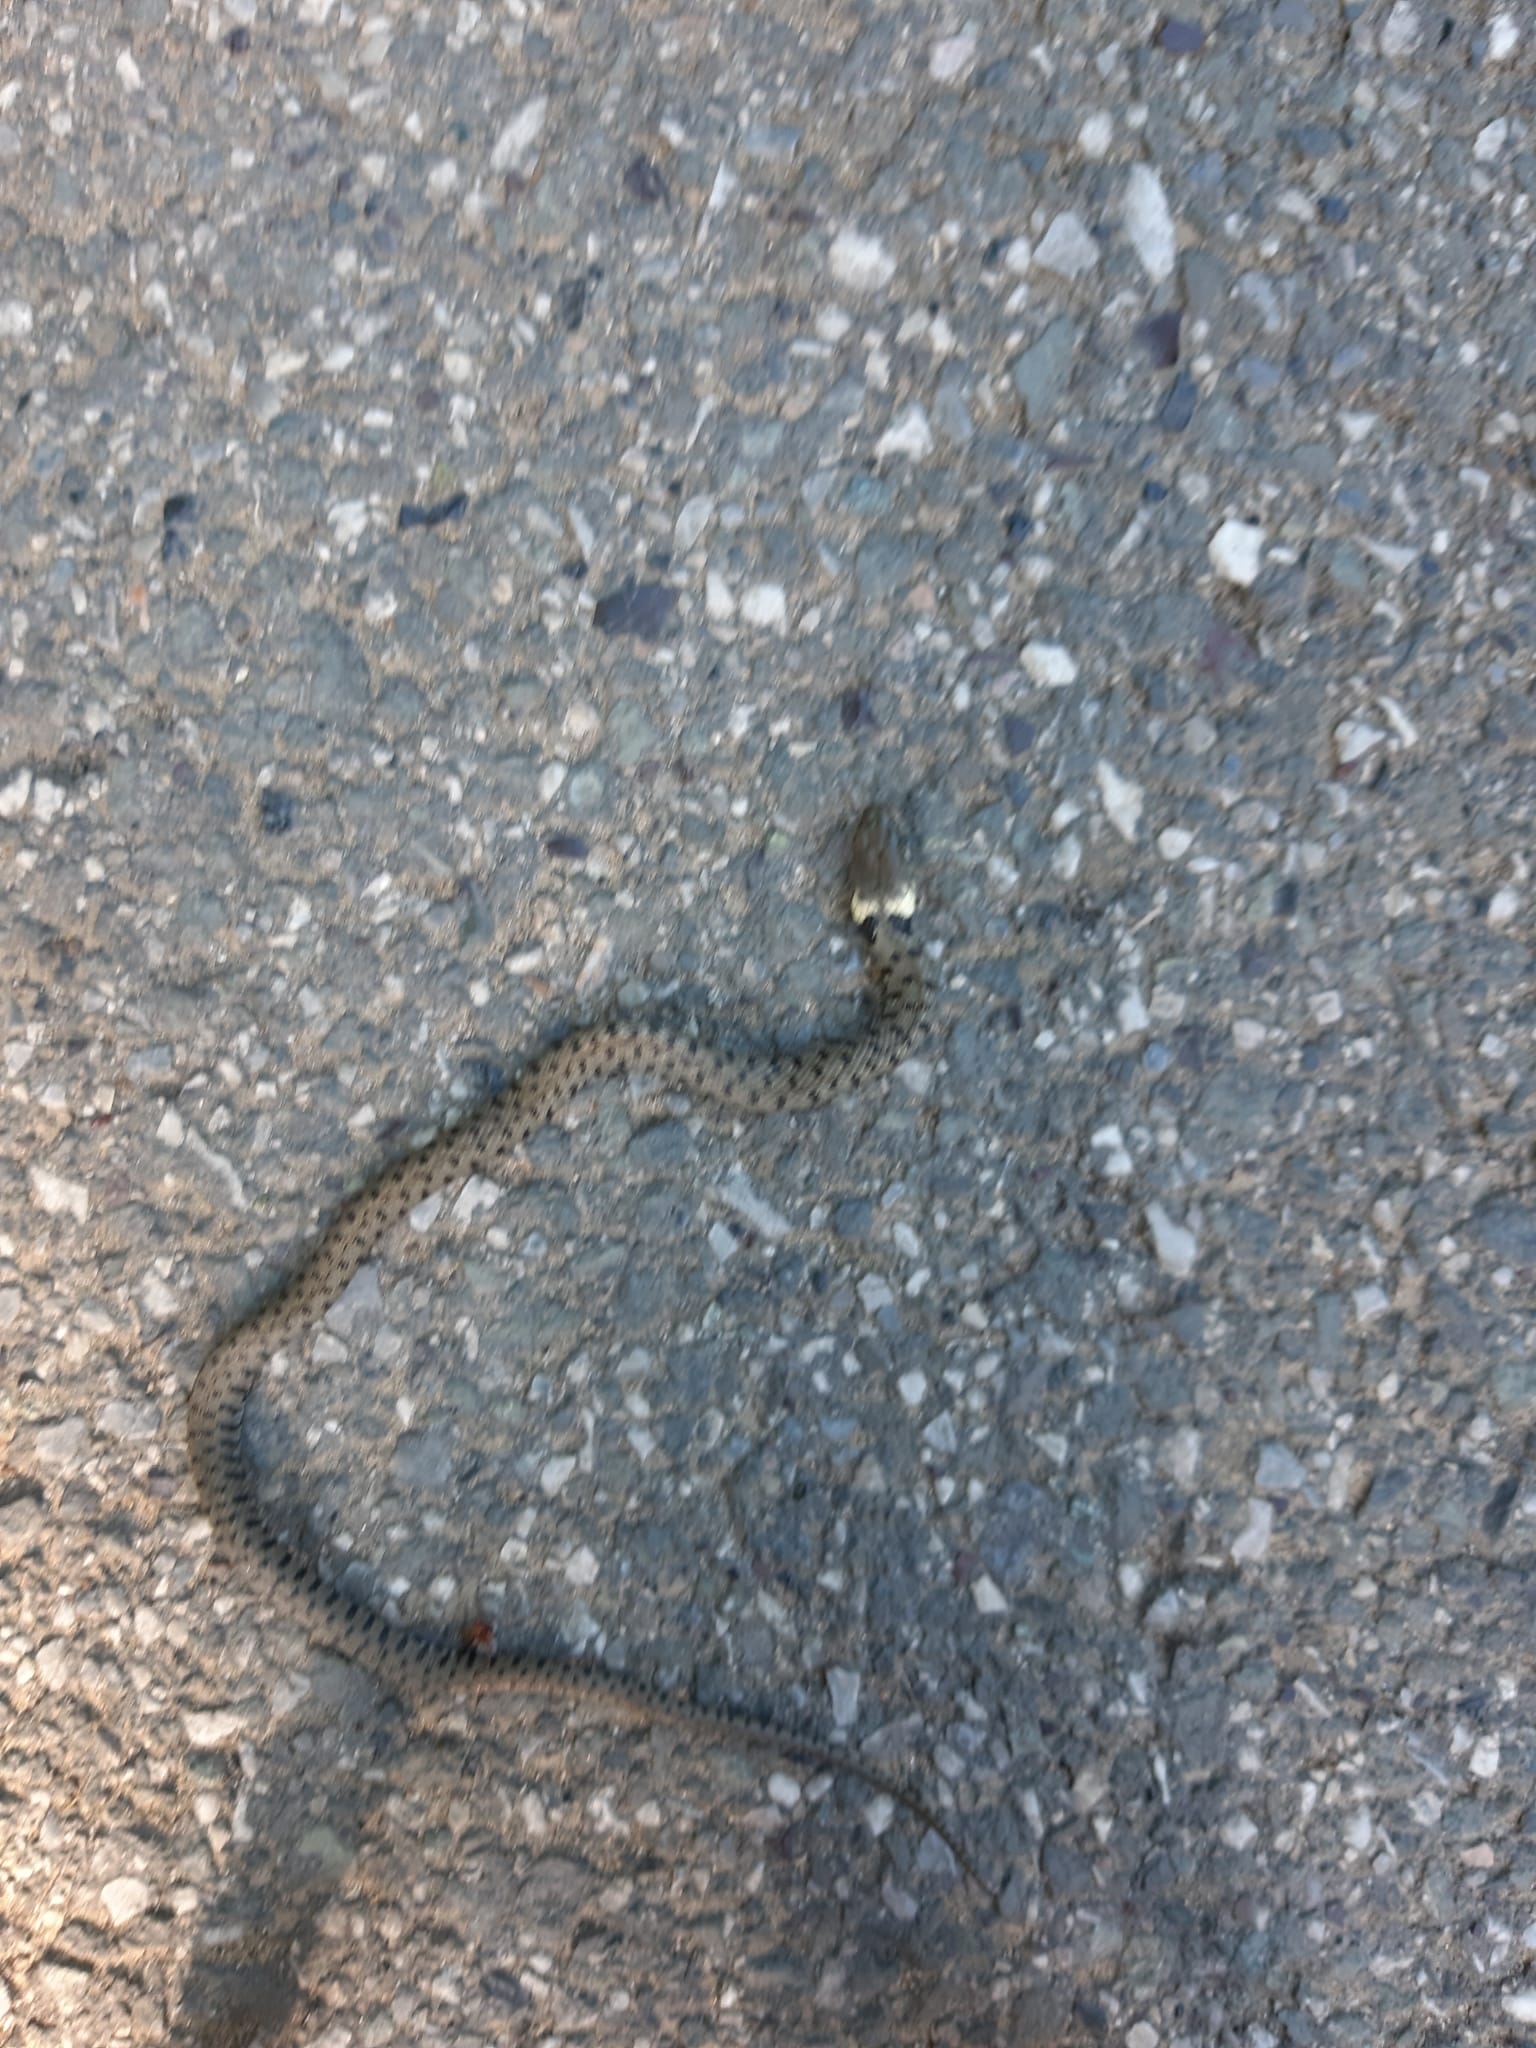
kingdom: Animalia
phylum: Chordata
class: Squamata
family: Colubridae
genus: Natrix
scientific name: Natrix helvetica
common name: Banded grass snake
